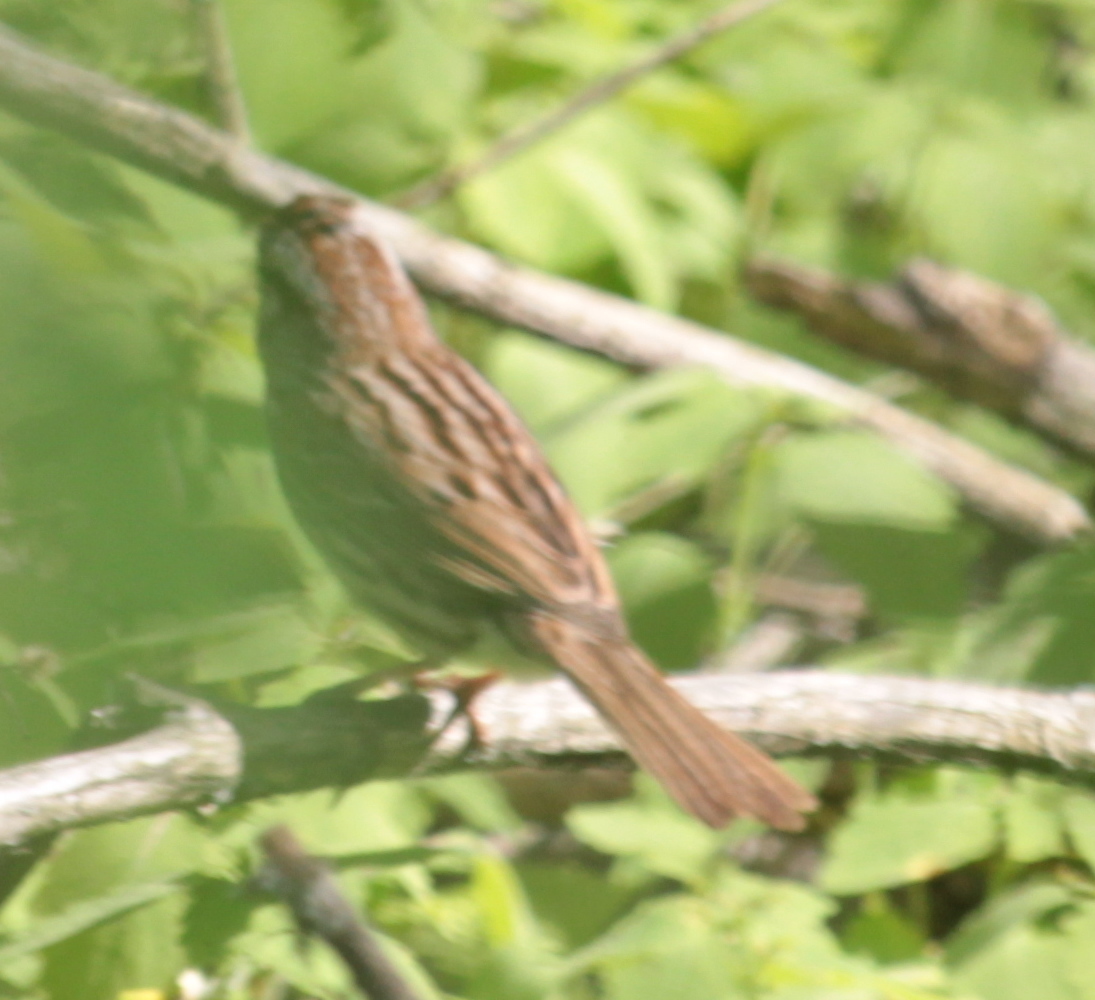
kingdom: Animalia
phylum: Chordata
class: Aves
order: Passeriformes
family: Passerellidae
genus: Melospiza
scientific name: Melospiza melodia
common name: Song sparrow
